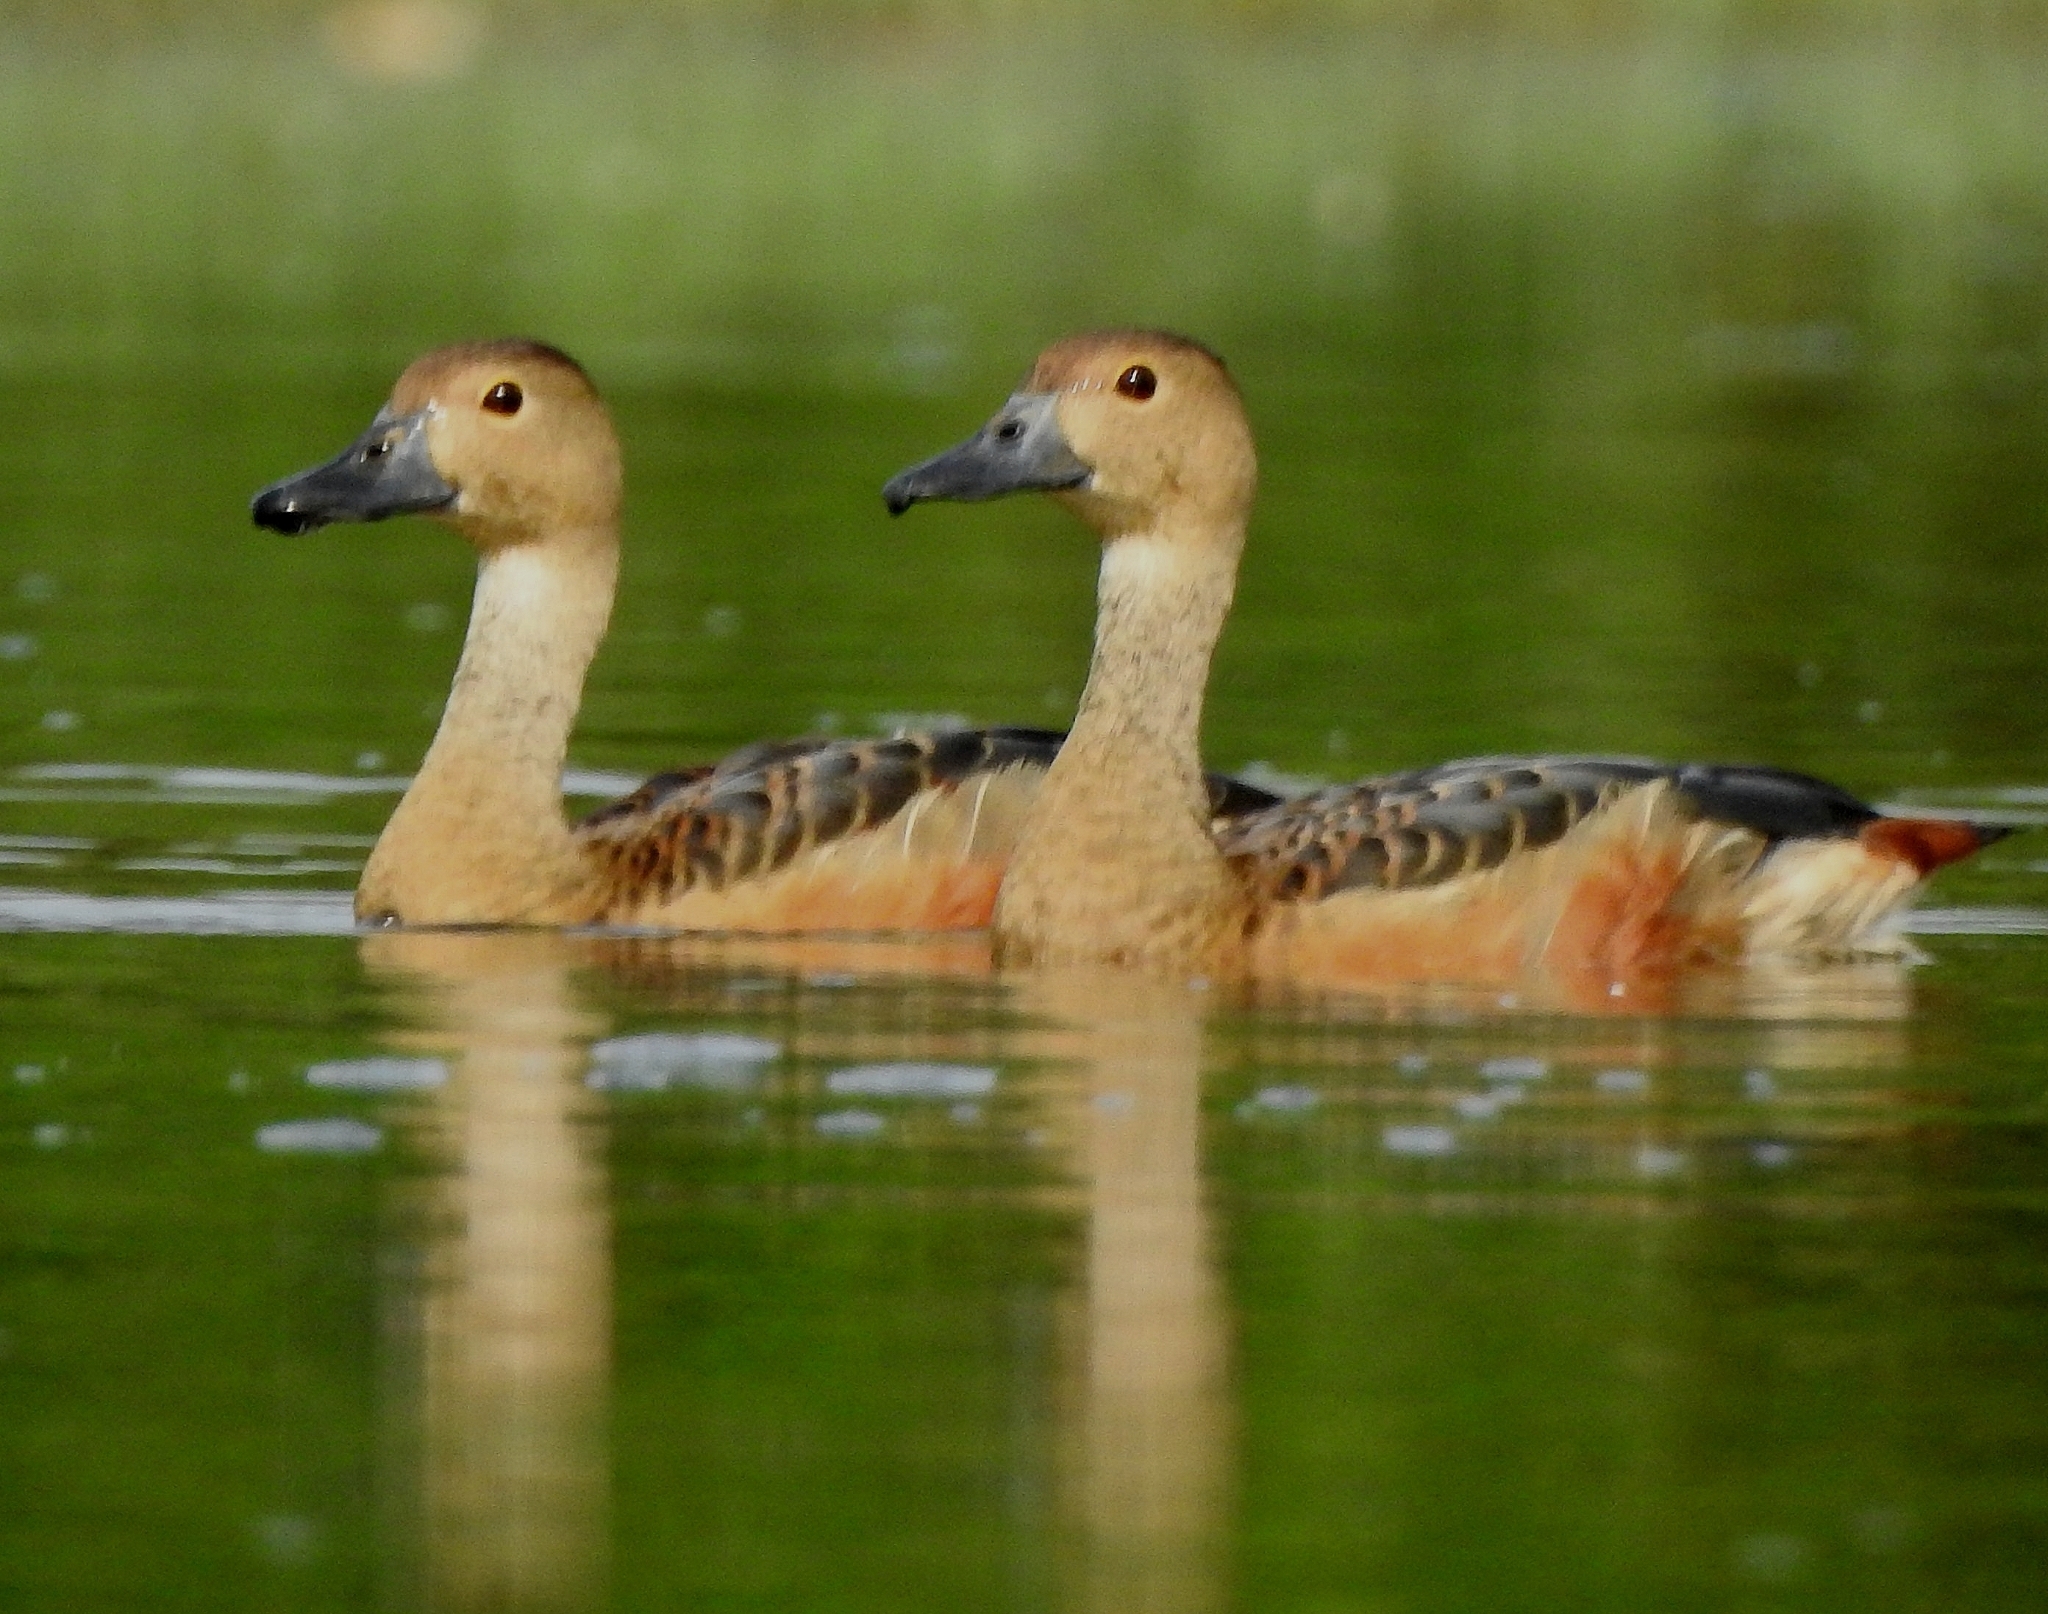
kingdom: Animalia
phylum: Chordata
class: Aves
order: Anseriformes
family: Anatidae
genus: Dendrocygna
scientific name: Dendrocygna javanica
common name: Lesser whistling-duck
